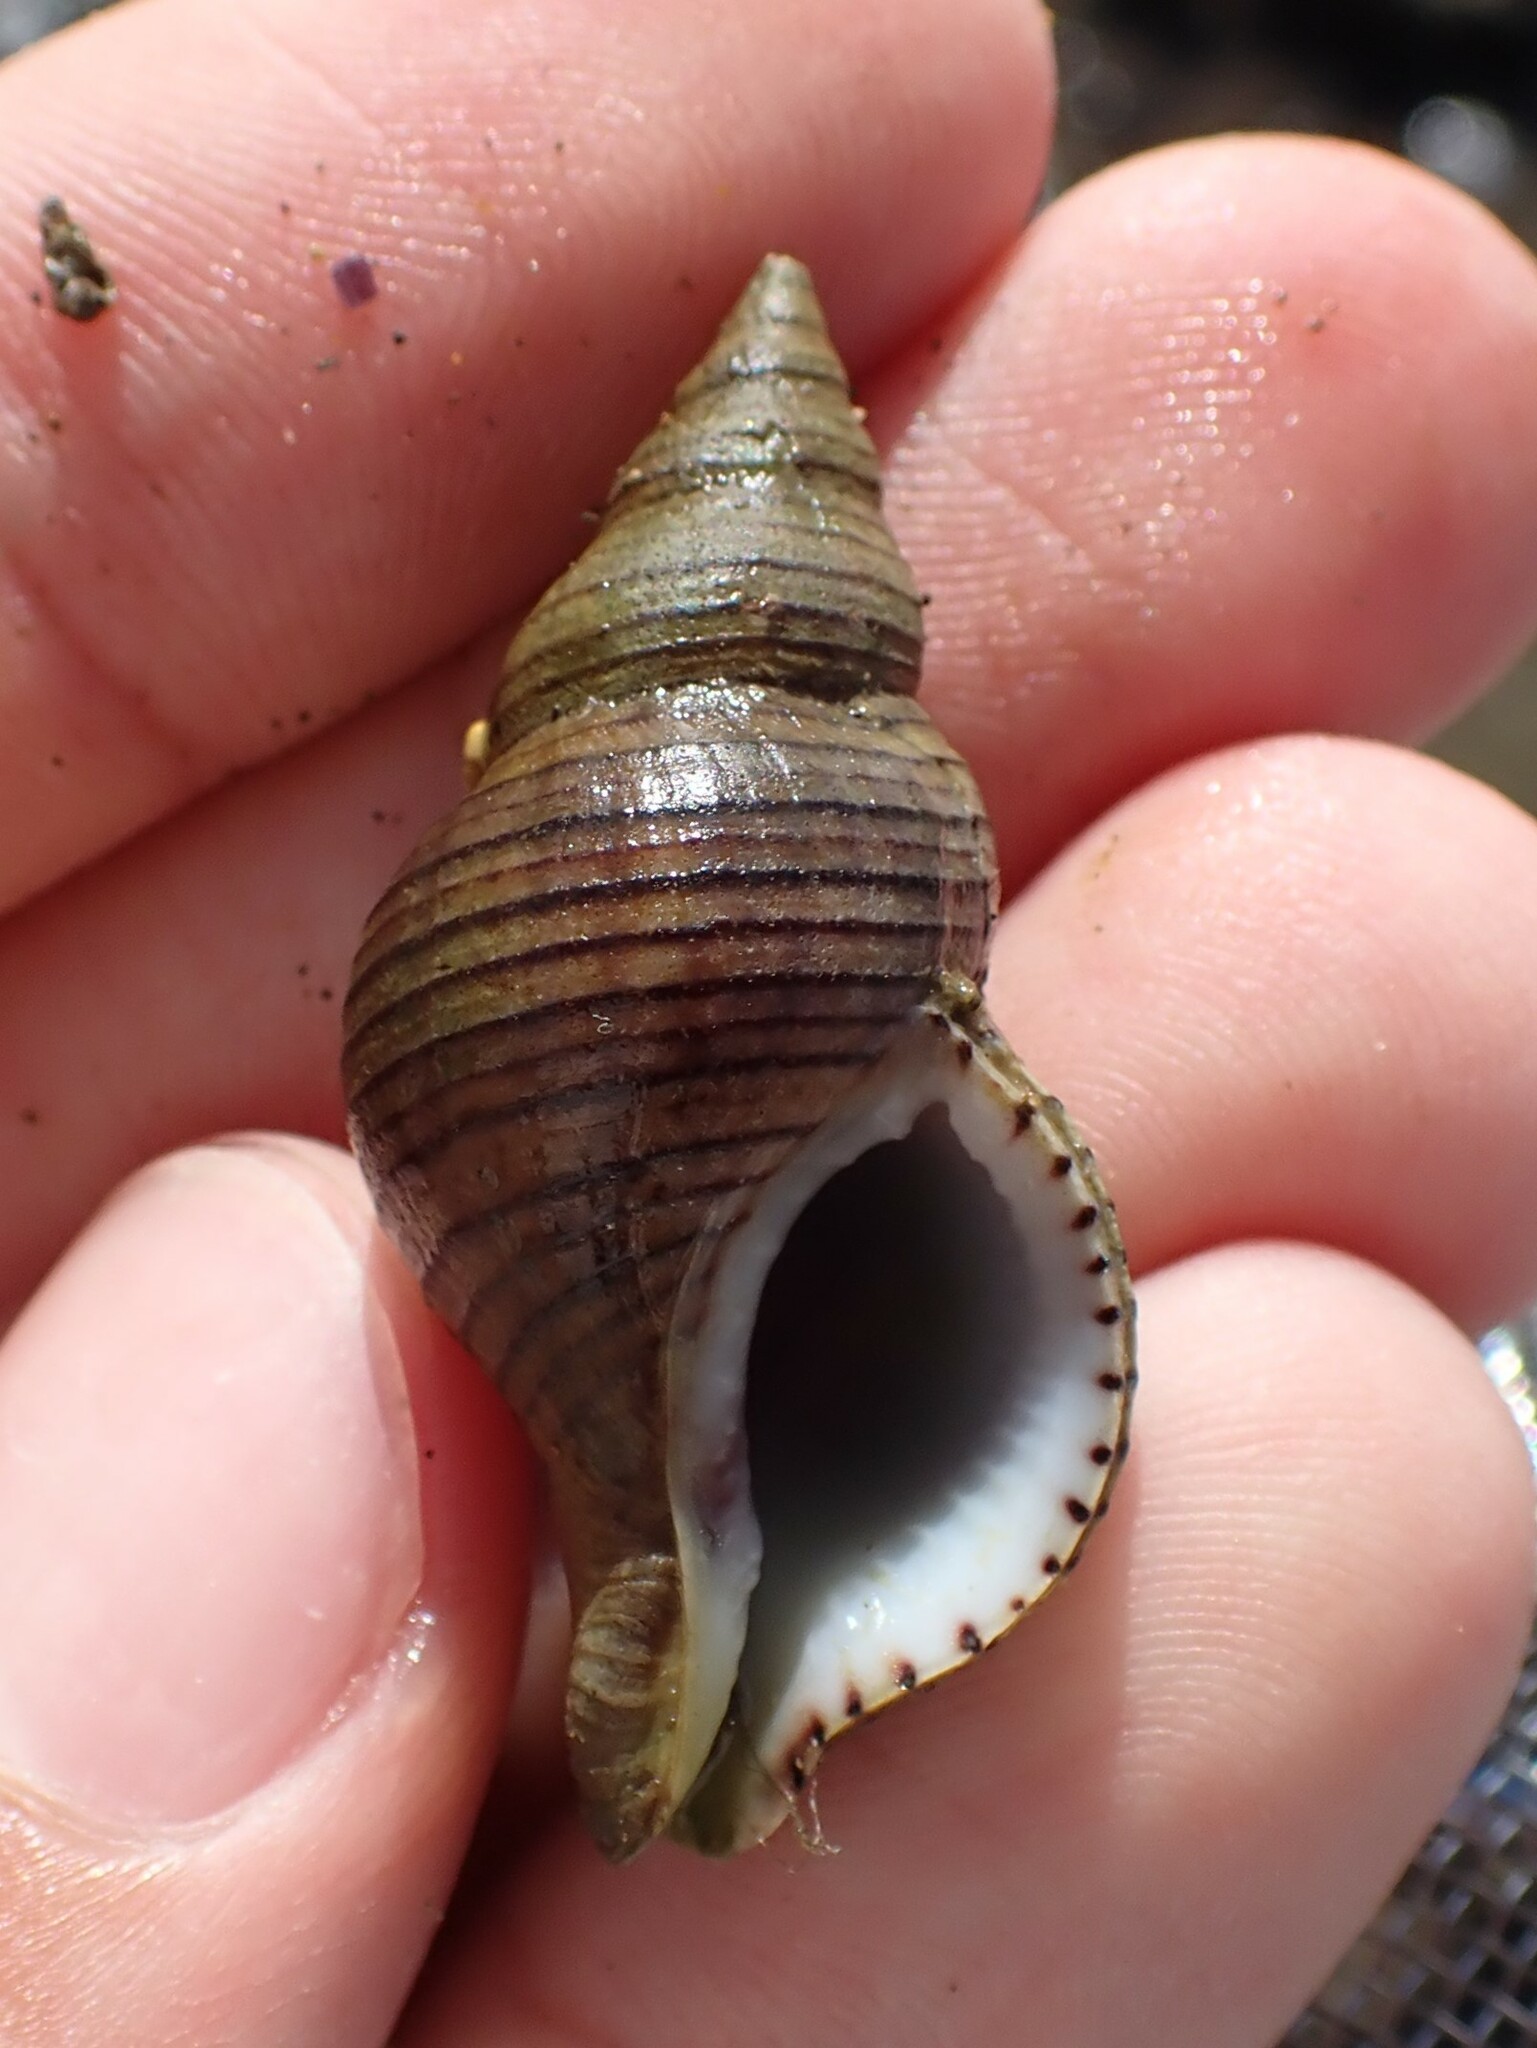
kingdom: Animalia
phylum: Mollusca
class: Gastropoda
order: Neogastropoda
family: Tudiclidae
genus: Buccinulum
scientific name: Buccinulum linea
